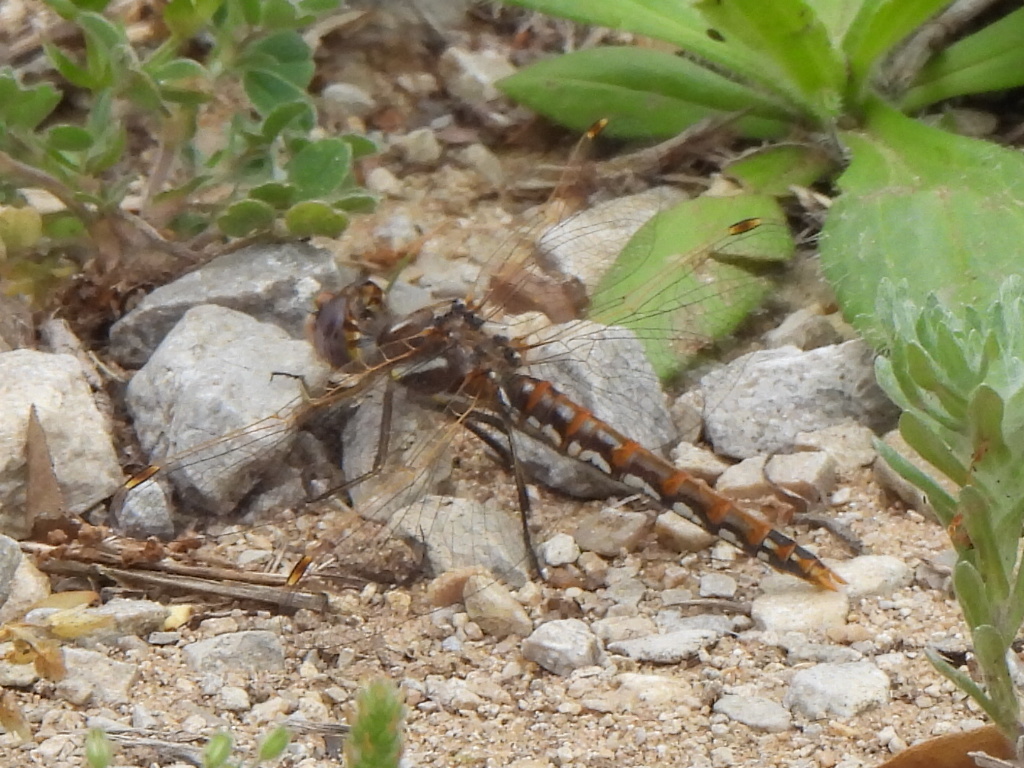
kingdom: Animalia
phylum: Arthropoda
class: Insecta
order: Odonata
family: Libellulidae
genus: Sympetrum
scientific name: Sympetrum corruptum
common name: Variegated meadowhawk
